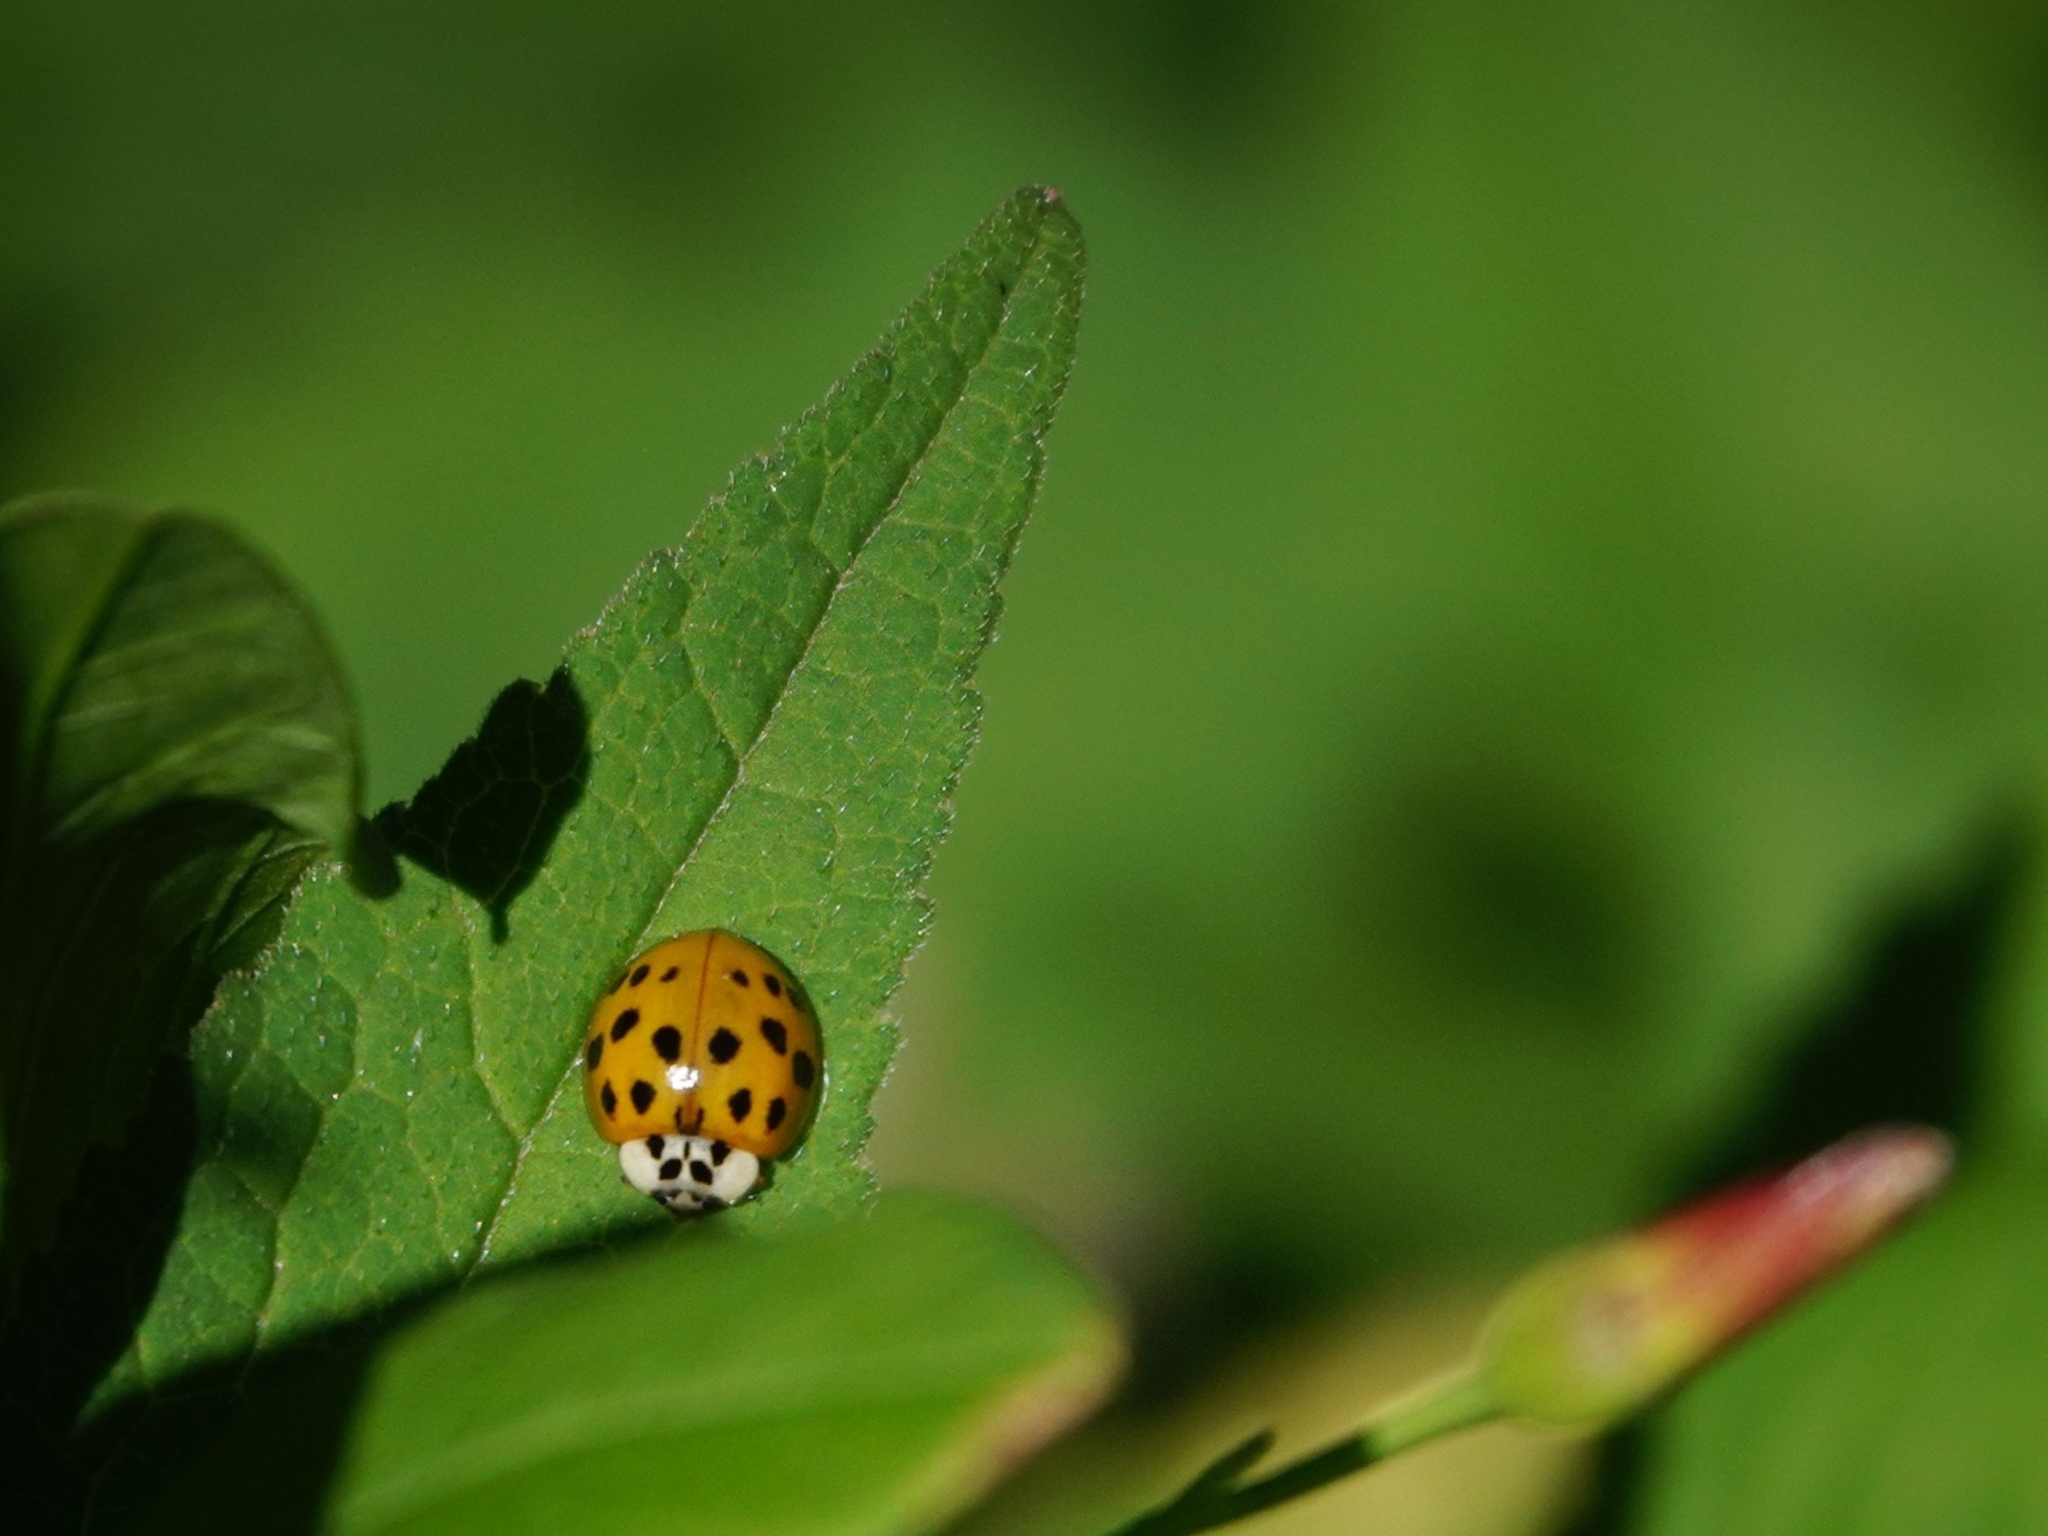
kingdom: Animalia
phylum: Arthropoda
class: Insecta
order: Coleoptera
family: Coccinellidae
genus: Harmonia
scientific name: Harmonia axyridis
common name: Harlequin ladybird
